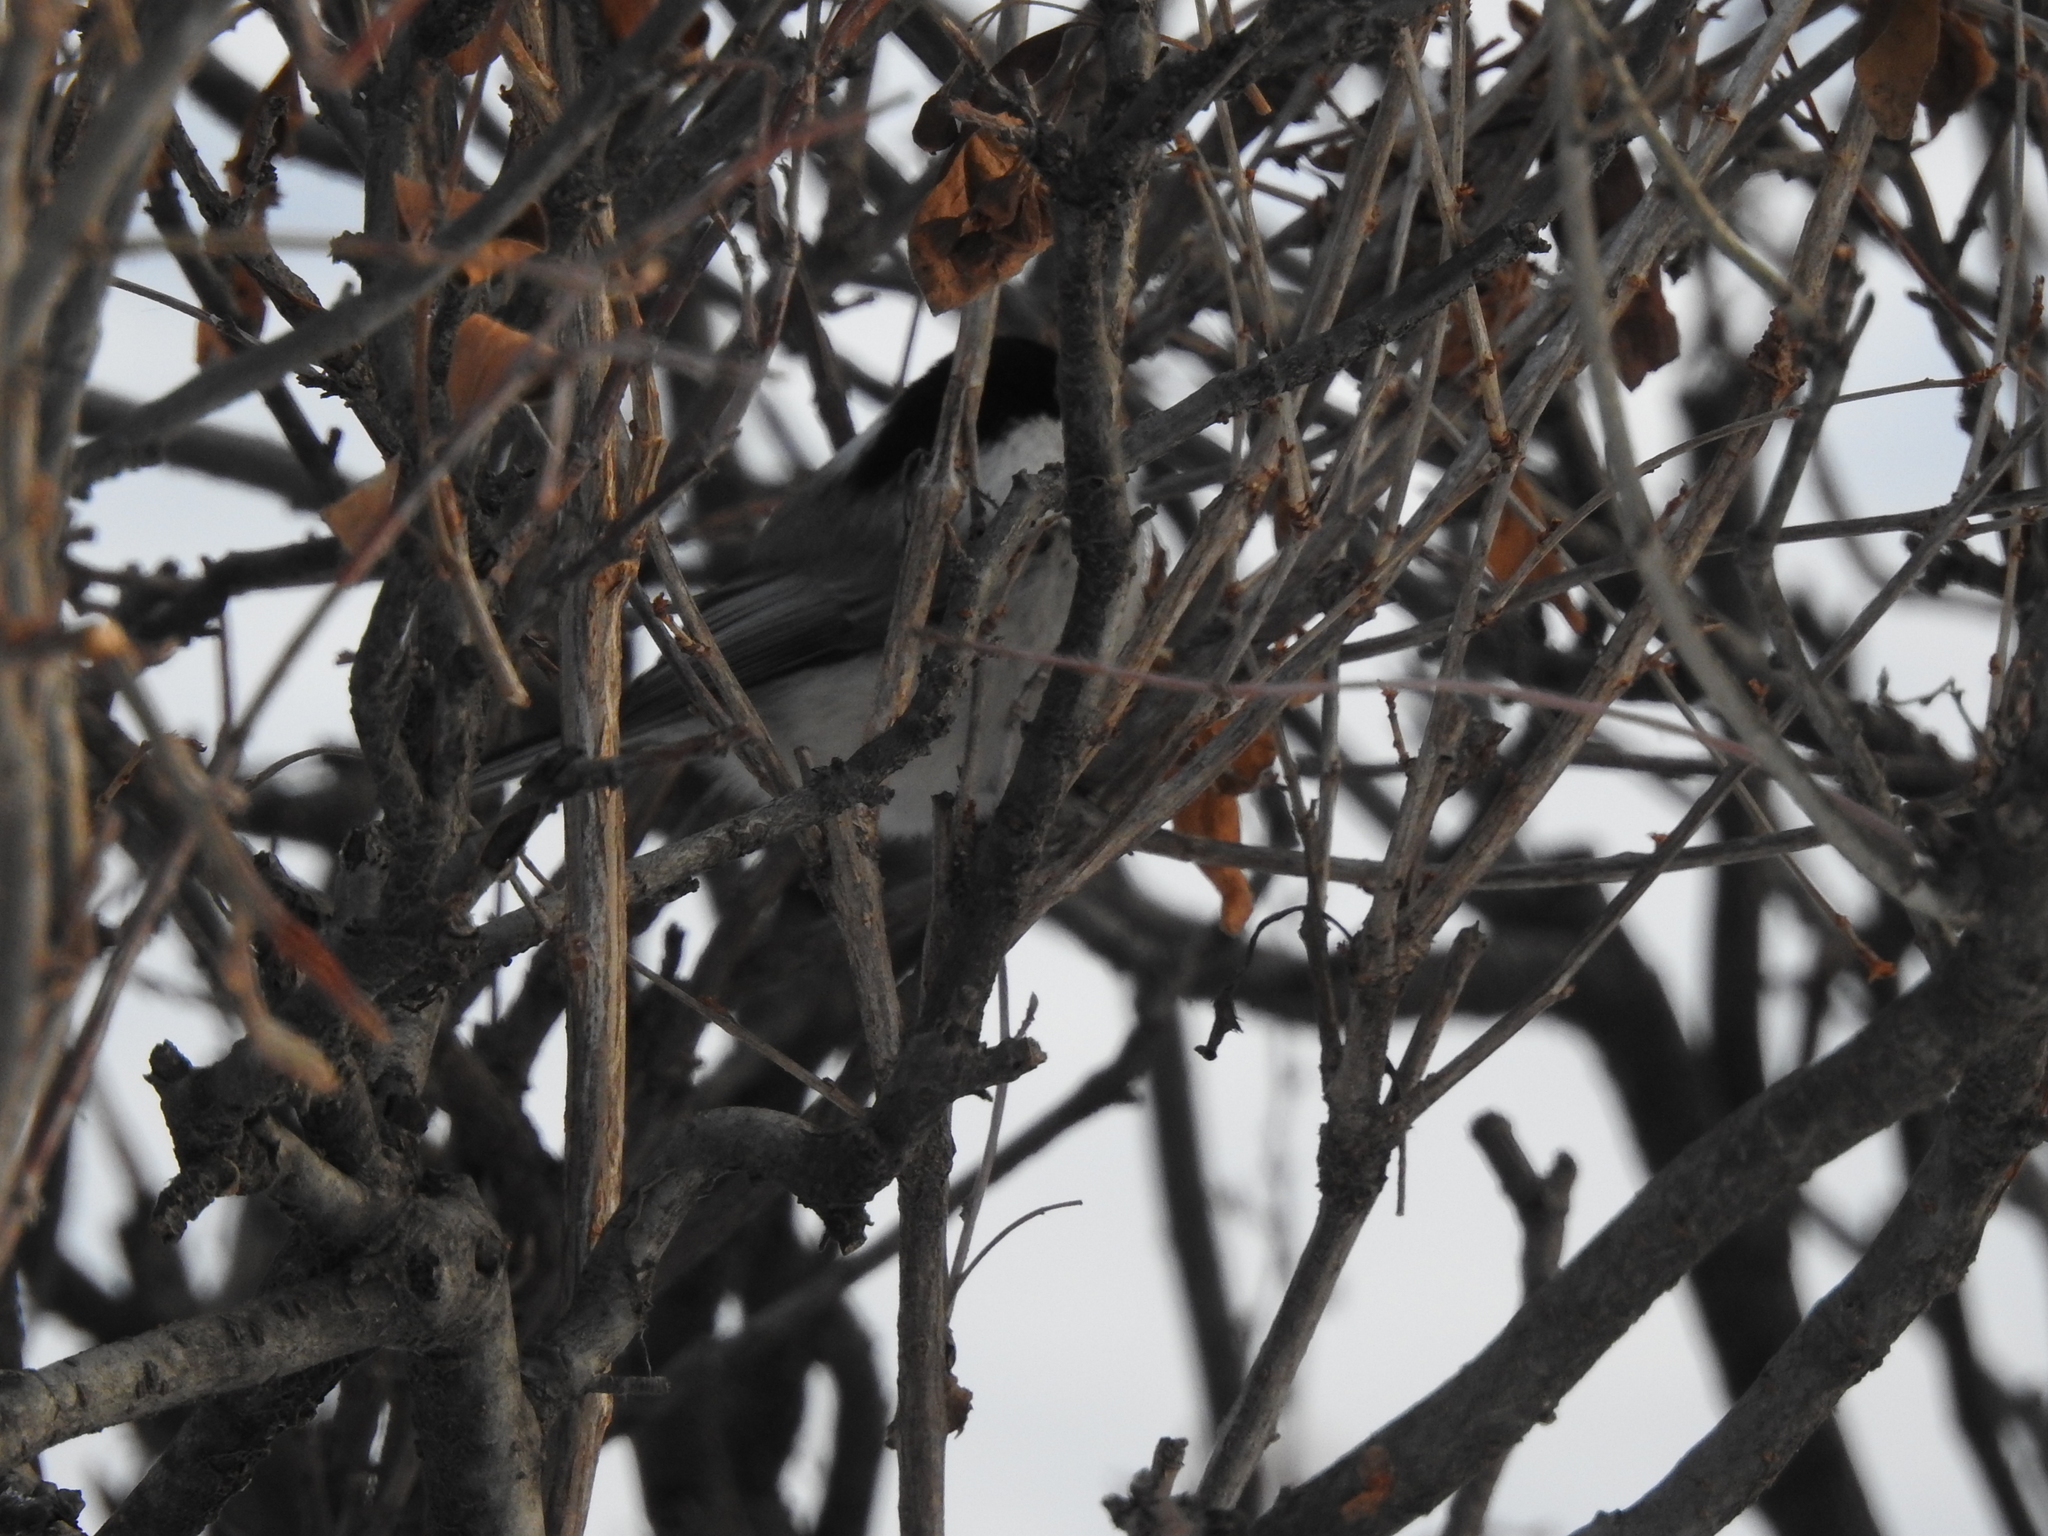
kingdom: Animalia
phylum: Chordata
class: Aves
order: Passeriformes
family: Paridae
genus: Poecile
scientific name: Poecile montanus
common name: Willow tit
